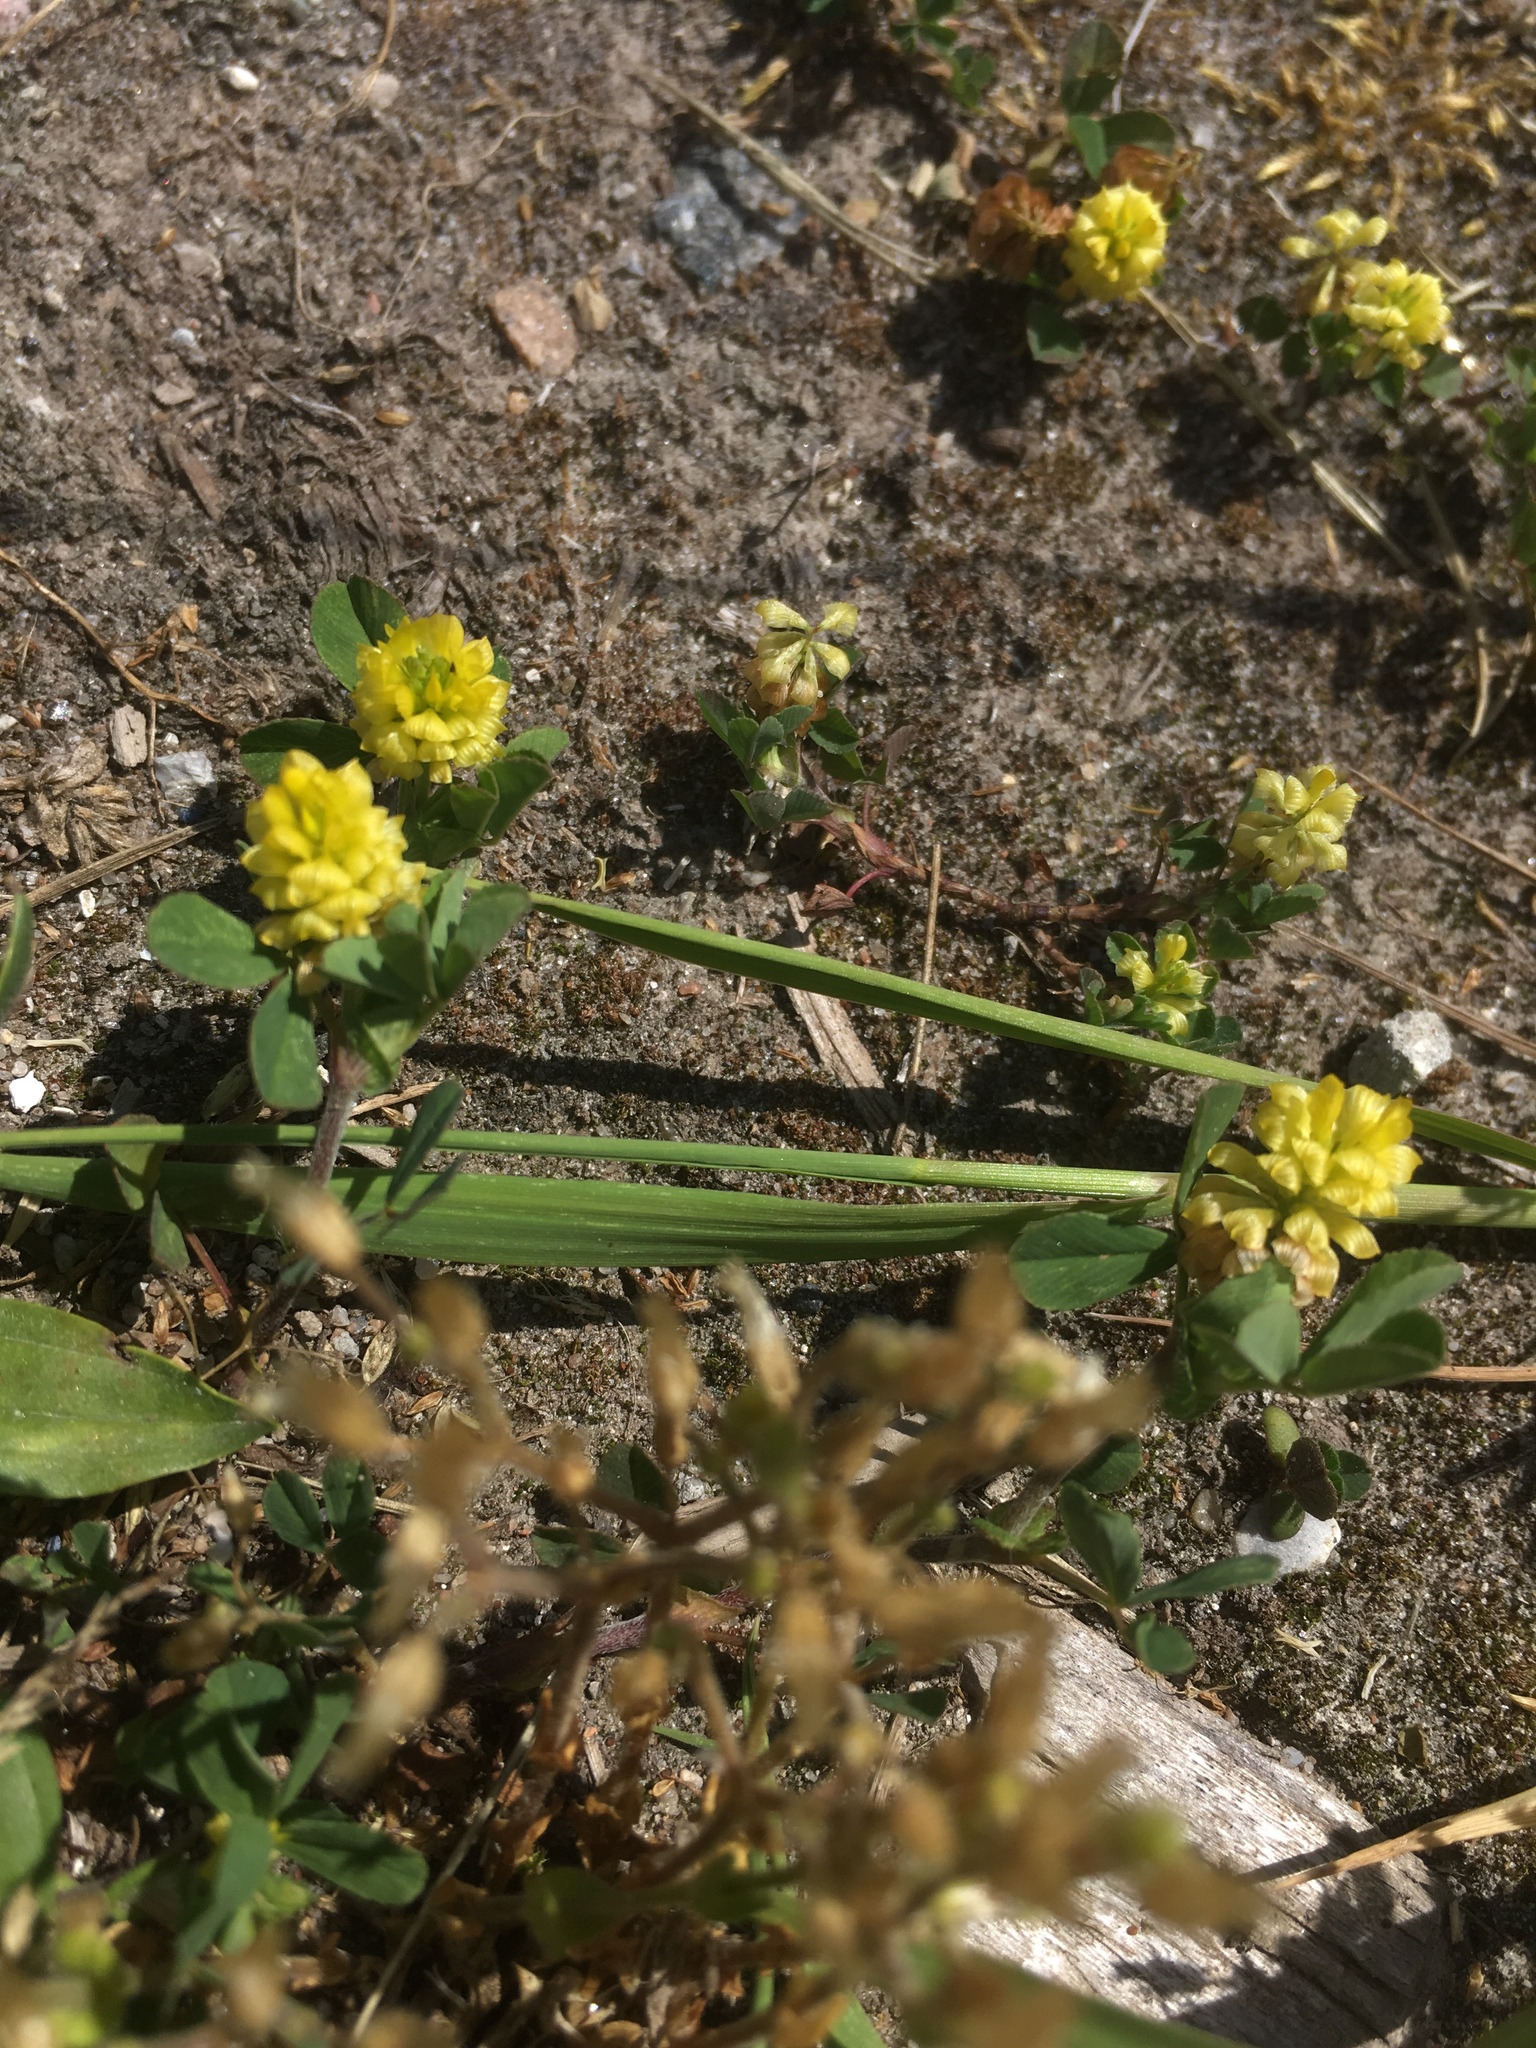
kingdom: Plantae
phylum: Tracheophyta
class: Magnoliopsida
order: Fabales
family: Fabaceae
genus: Trifolium
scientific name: Trifolium campestre
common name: Field clover
